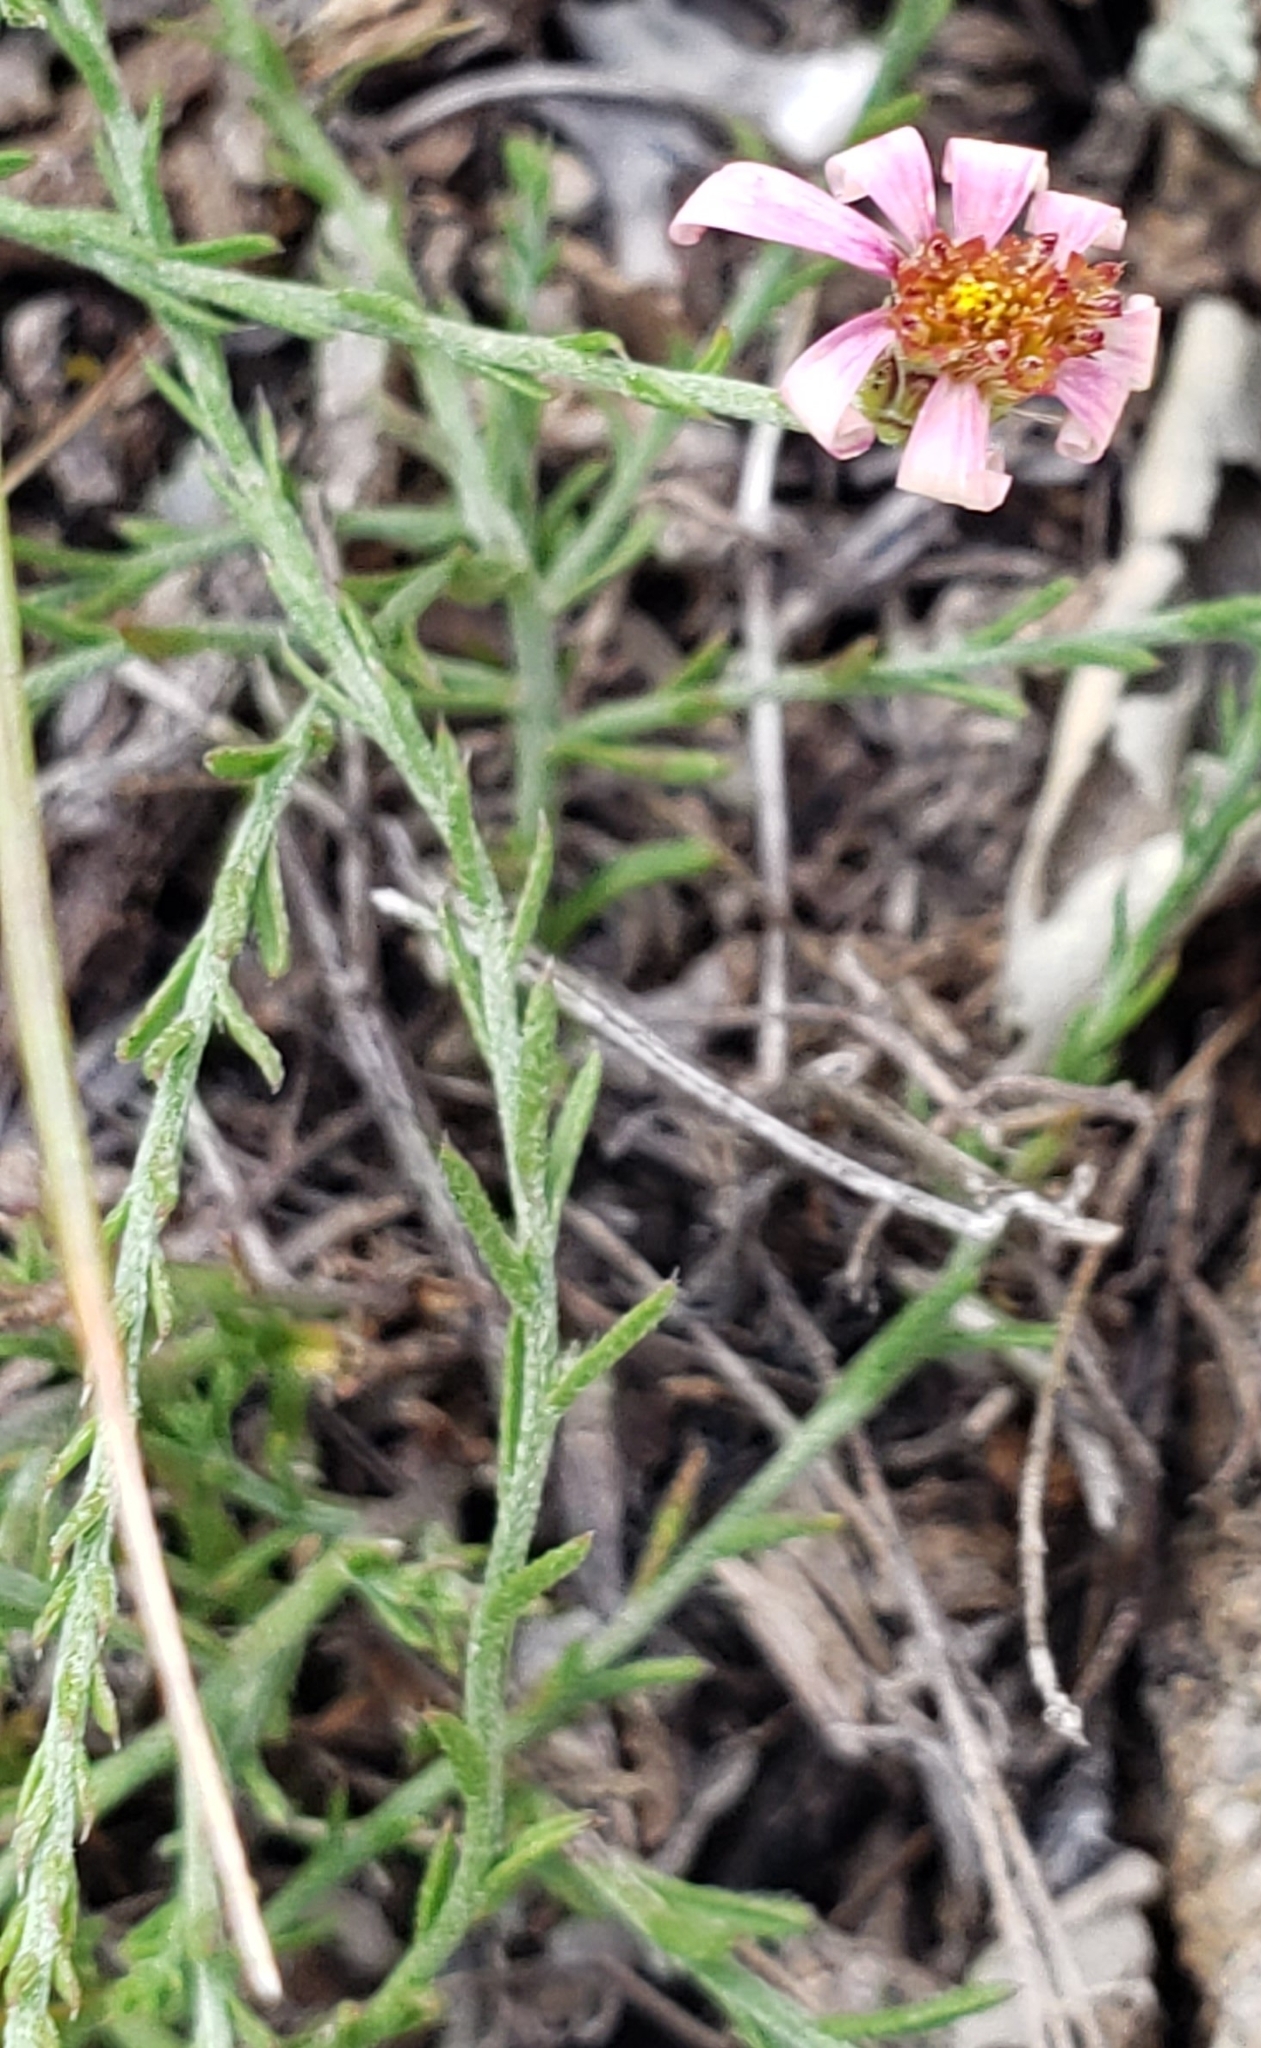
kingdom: Plantae
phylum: Tracheophyta
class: Magnoliopsida
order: Asterales
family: Asteraceae
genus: Chaetopappa
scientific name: Chaetopappa ericoides
